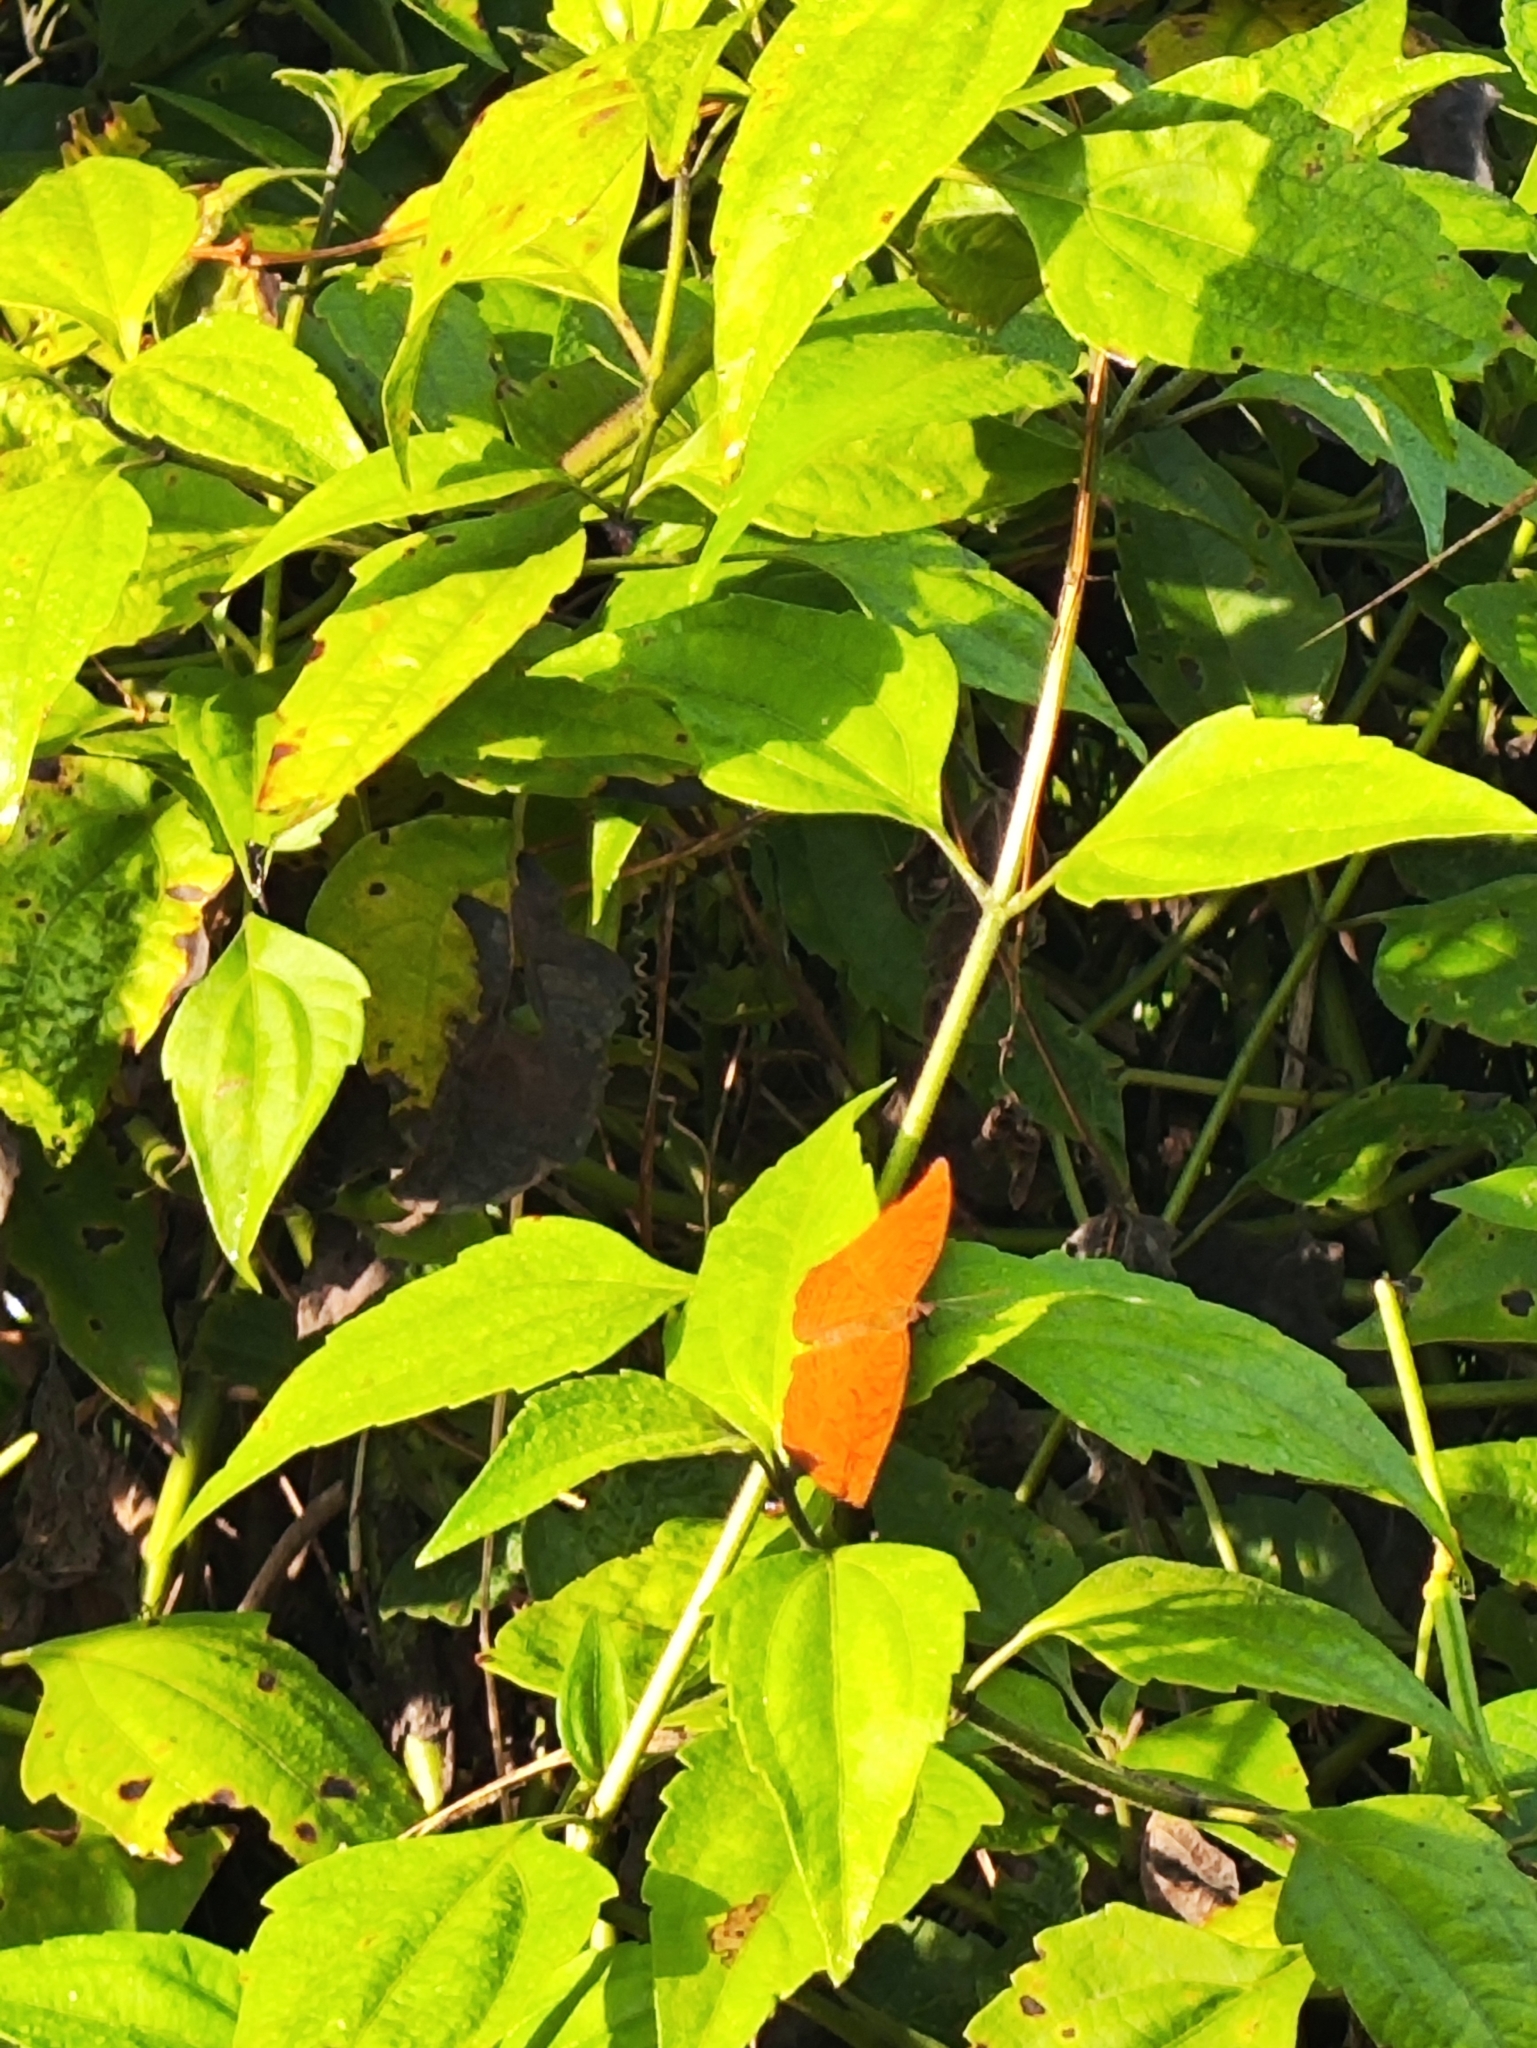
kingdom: Animalia
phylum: Arthropoda
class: Insecta
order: Lepidoptera
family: Nymphalidae
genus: Ariadne
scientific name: Ariadne merione
